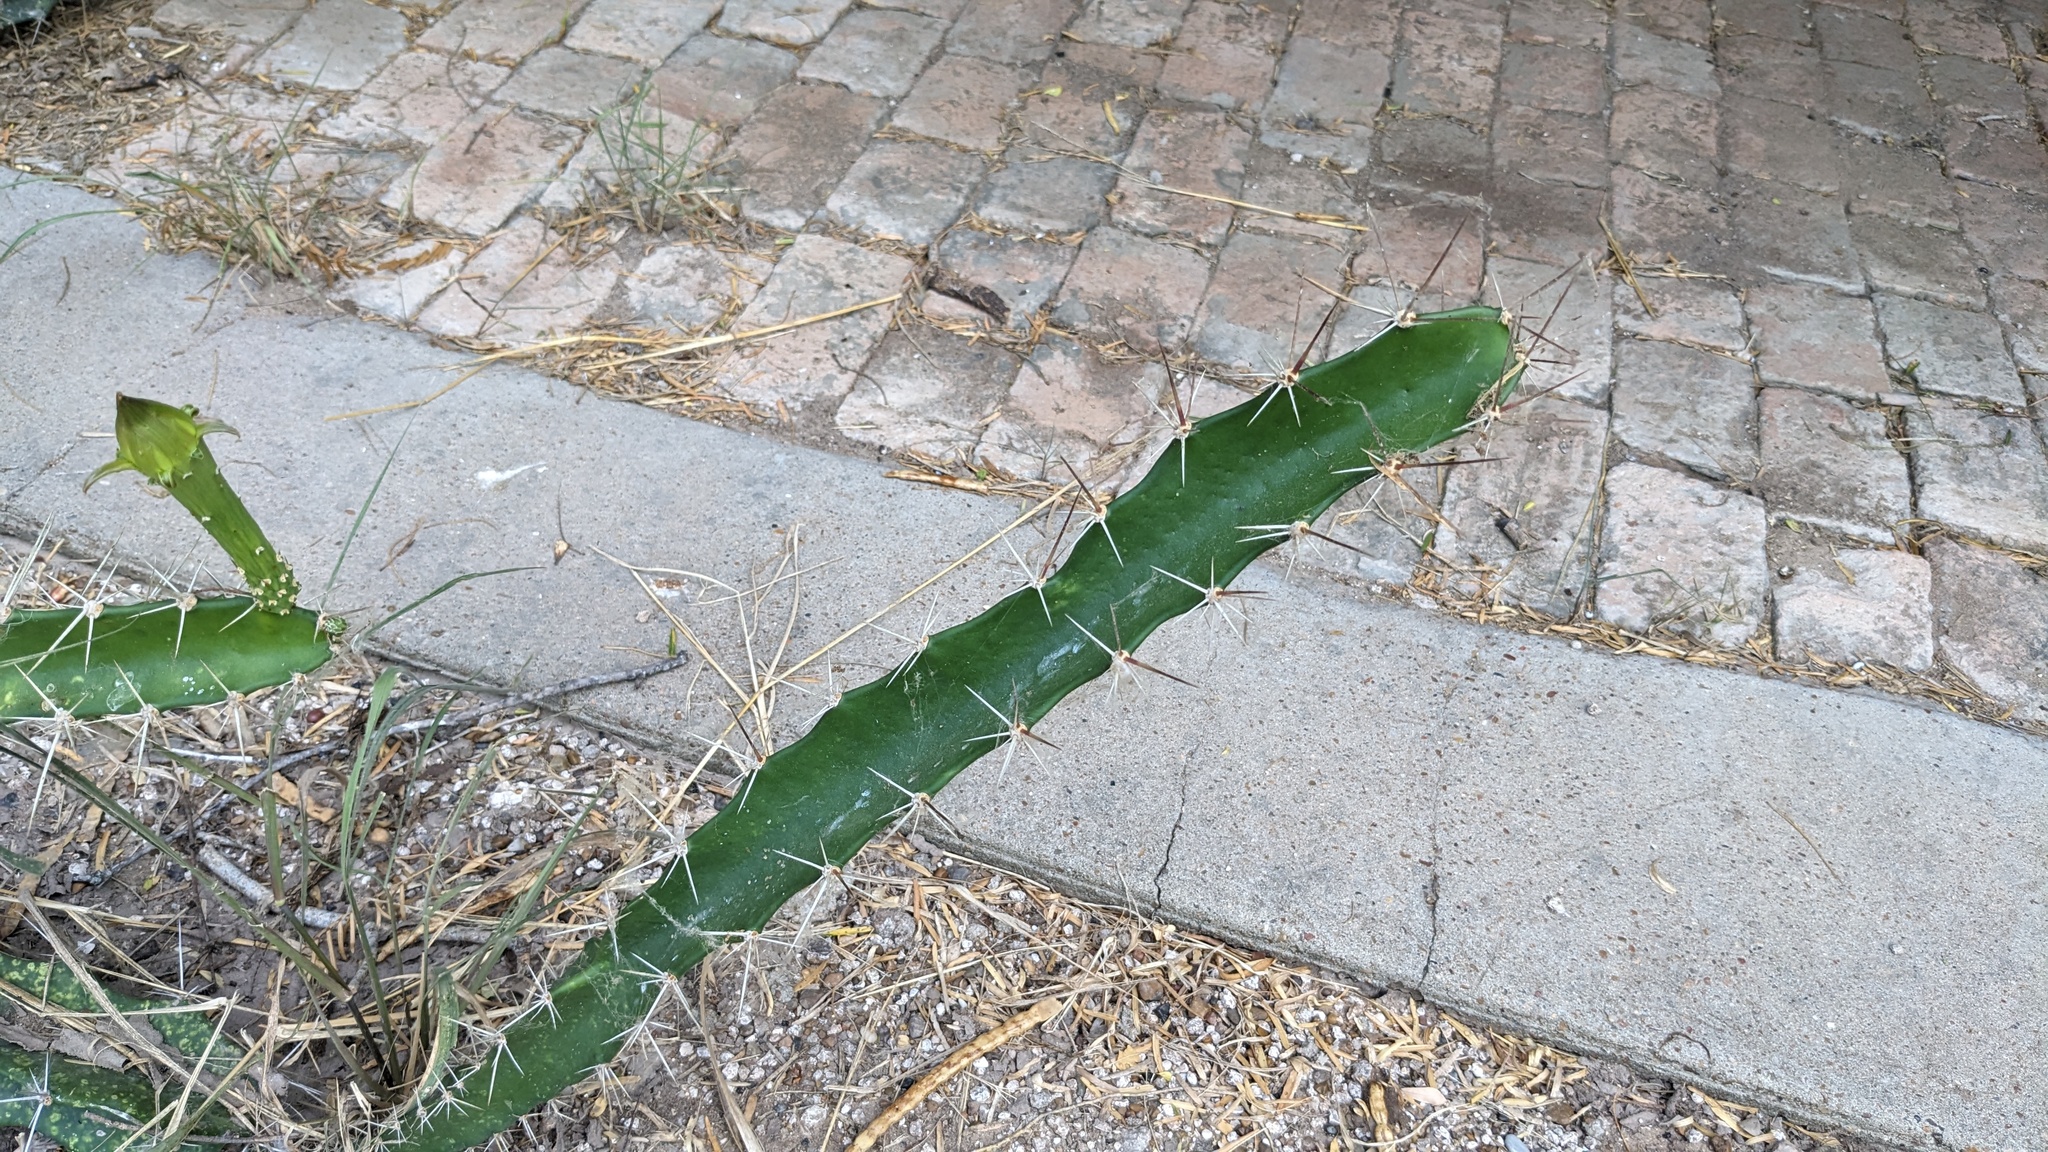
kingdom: Plantae
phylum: Tracheophyta
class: Magnoliopsida
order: Caryophyllales
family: Cactaceae
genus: Acanthocereus
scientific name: Acanthocereus tetragonus
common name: Triangle cactus
